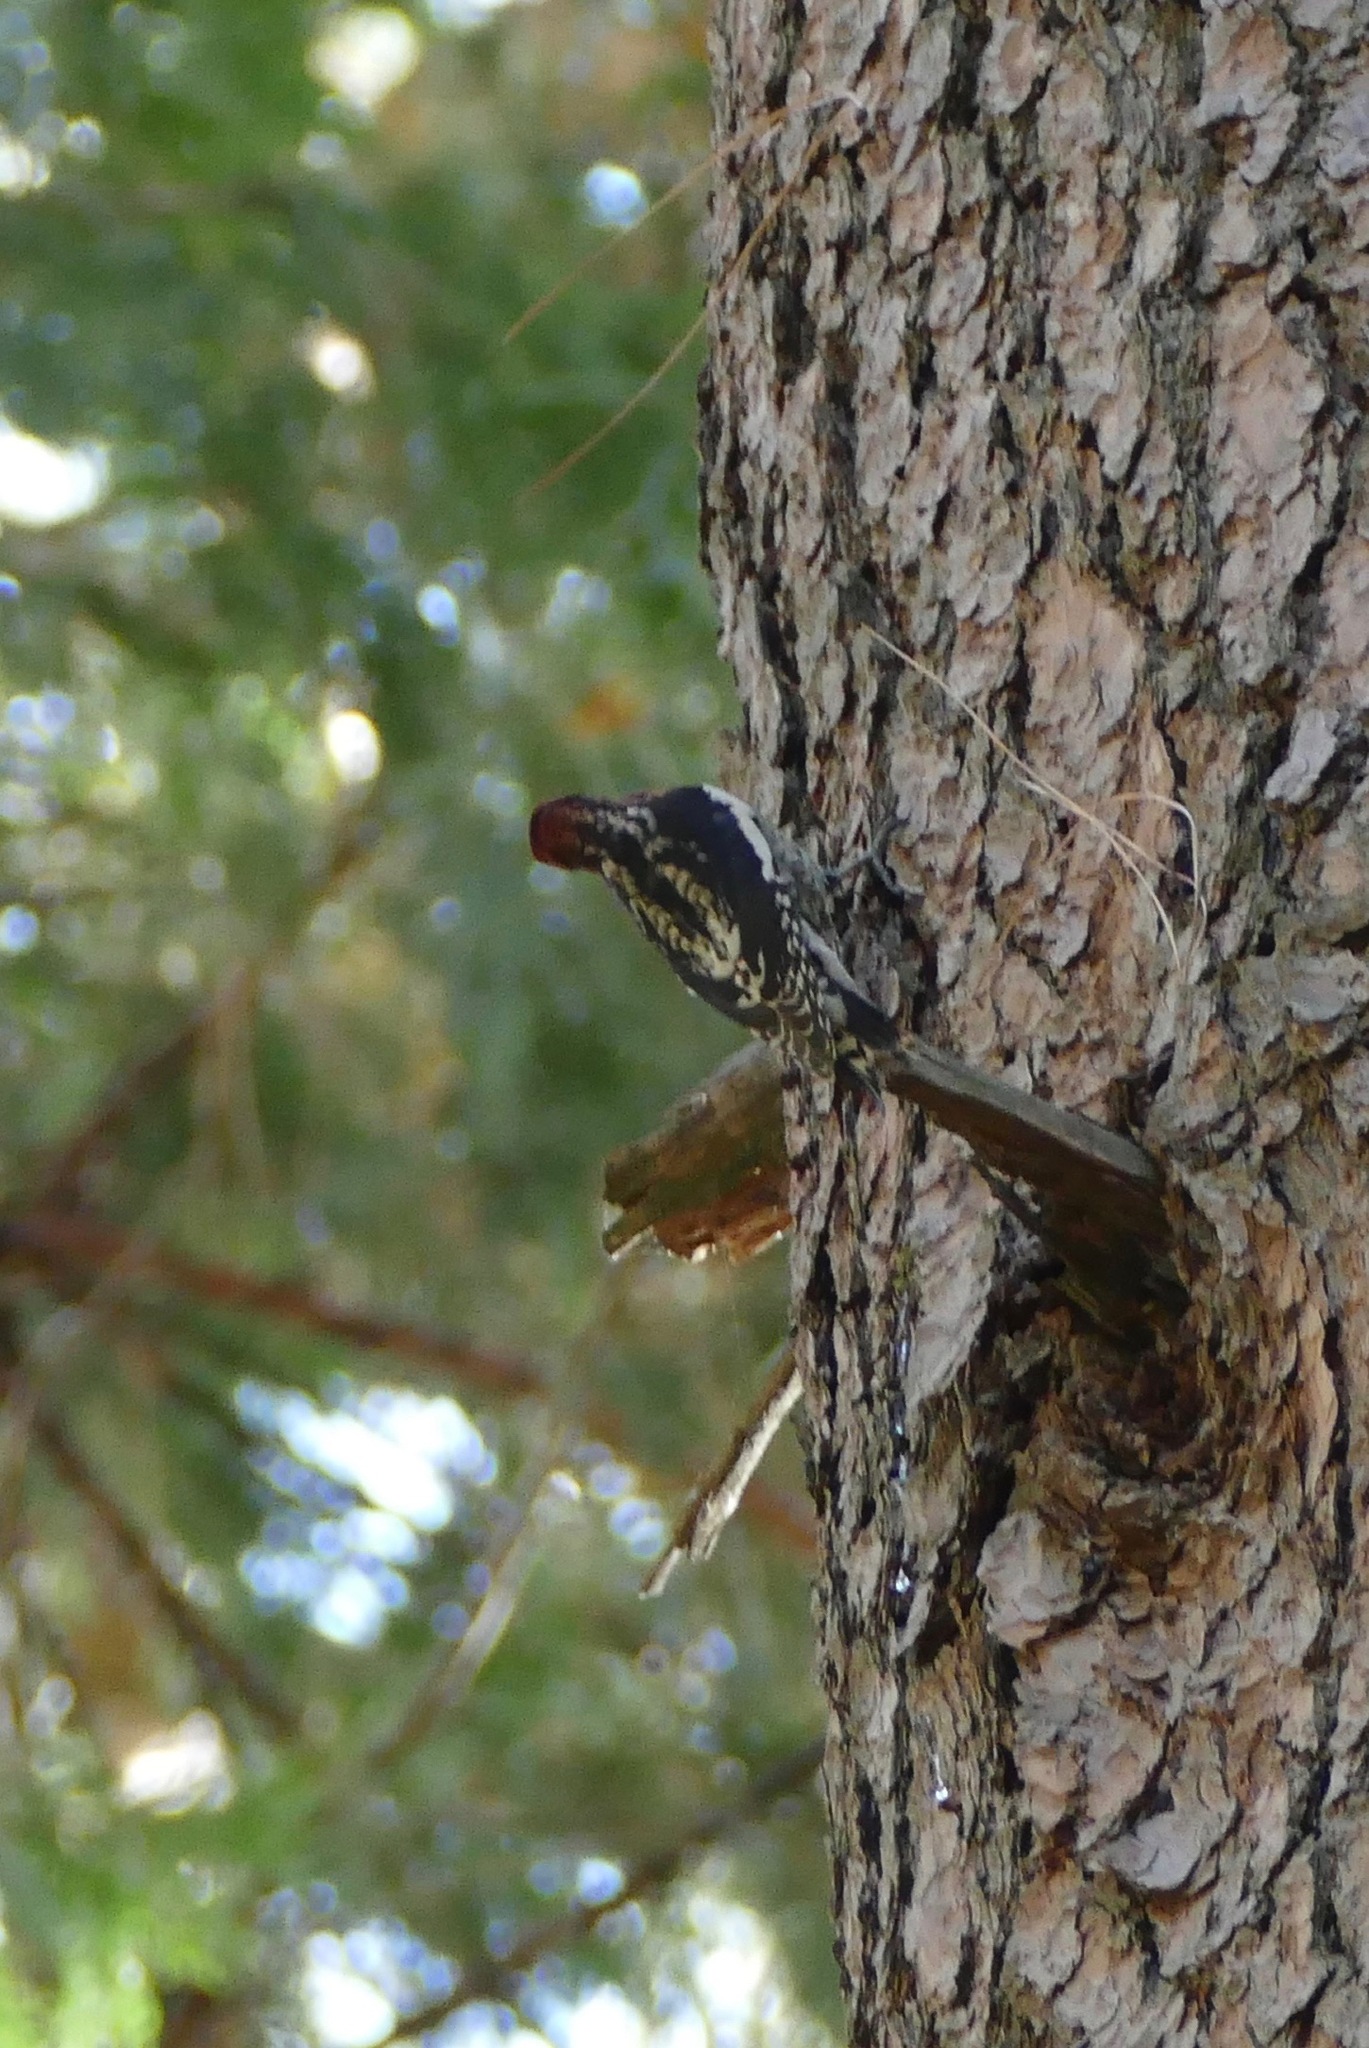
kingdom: Animalia
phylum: Chordata
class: Aves
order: Piciformes
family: Picidae
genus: Sphyrapicus
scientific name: Sphyrapicus ruber
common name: Red-breasted sapsucker
